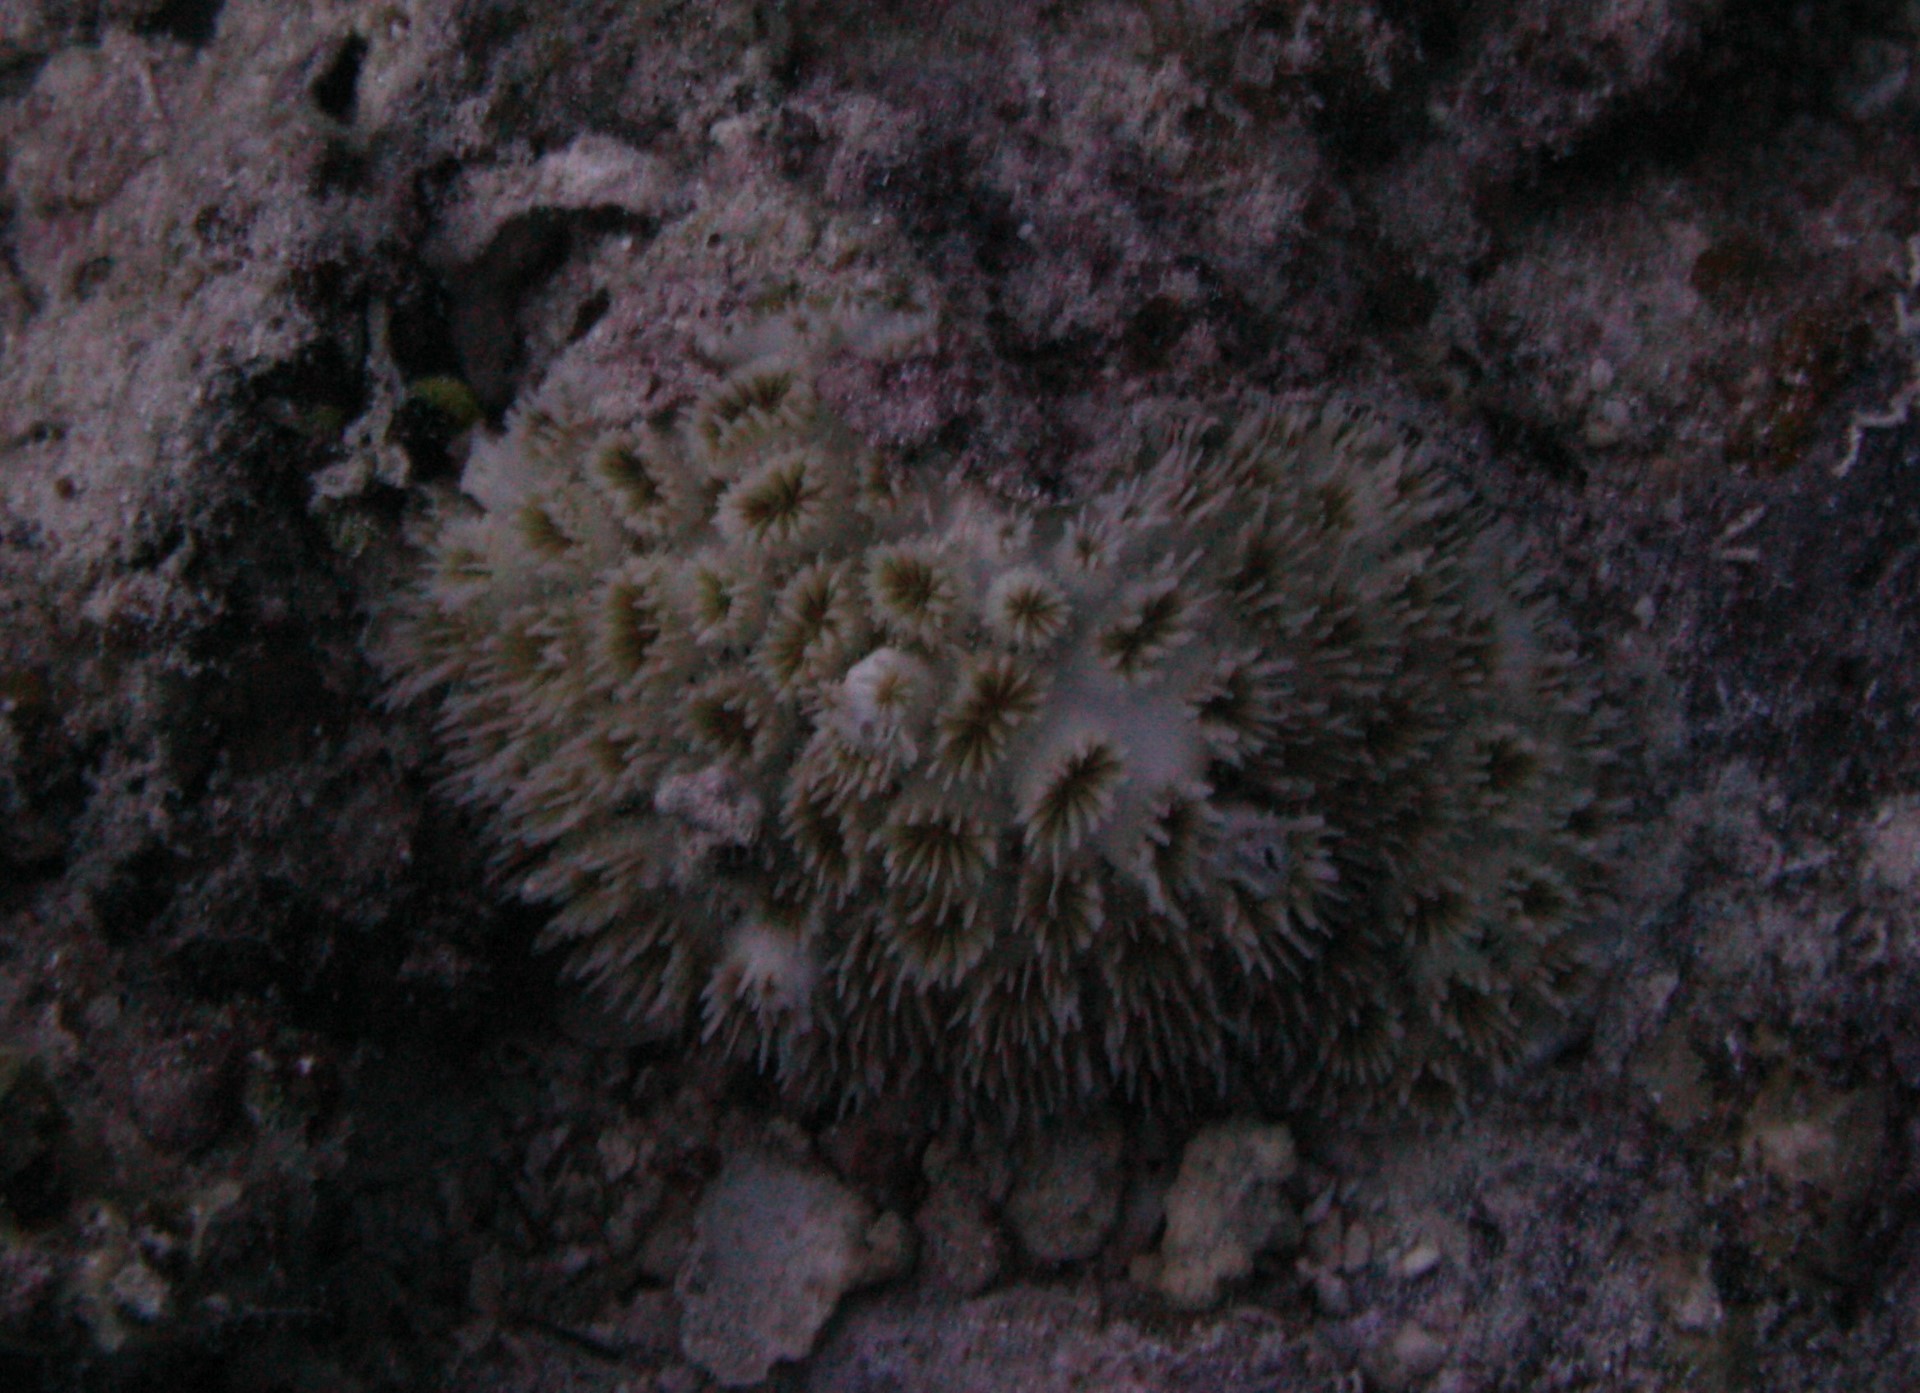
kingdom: Animalia
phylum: Cnidaria
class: Anthozoa
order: Scleractinia
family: Euphylliidae
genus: Galaxea
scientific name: Galaxea fascicularis
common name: Octopus coral
